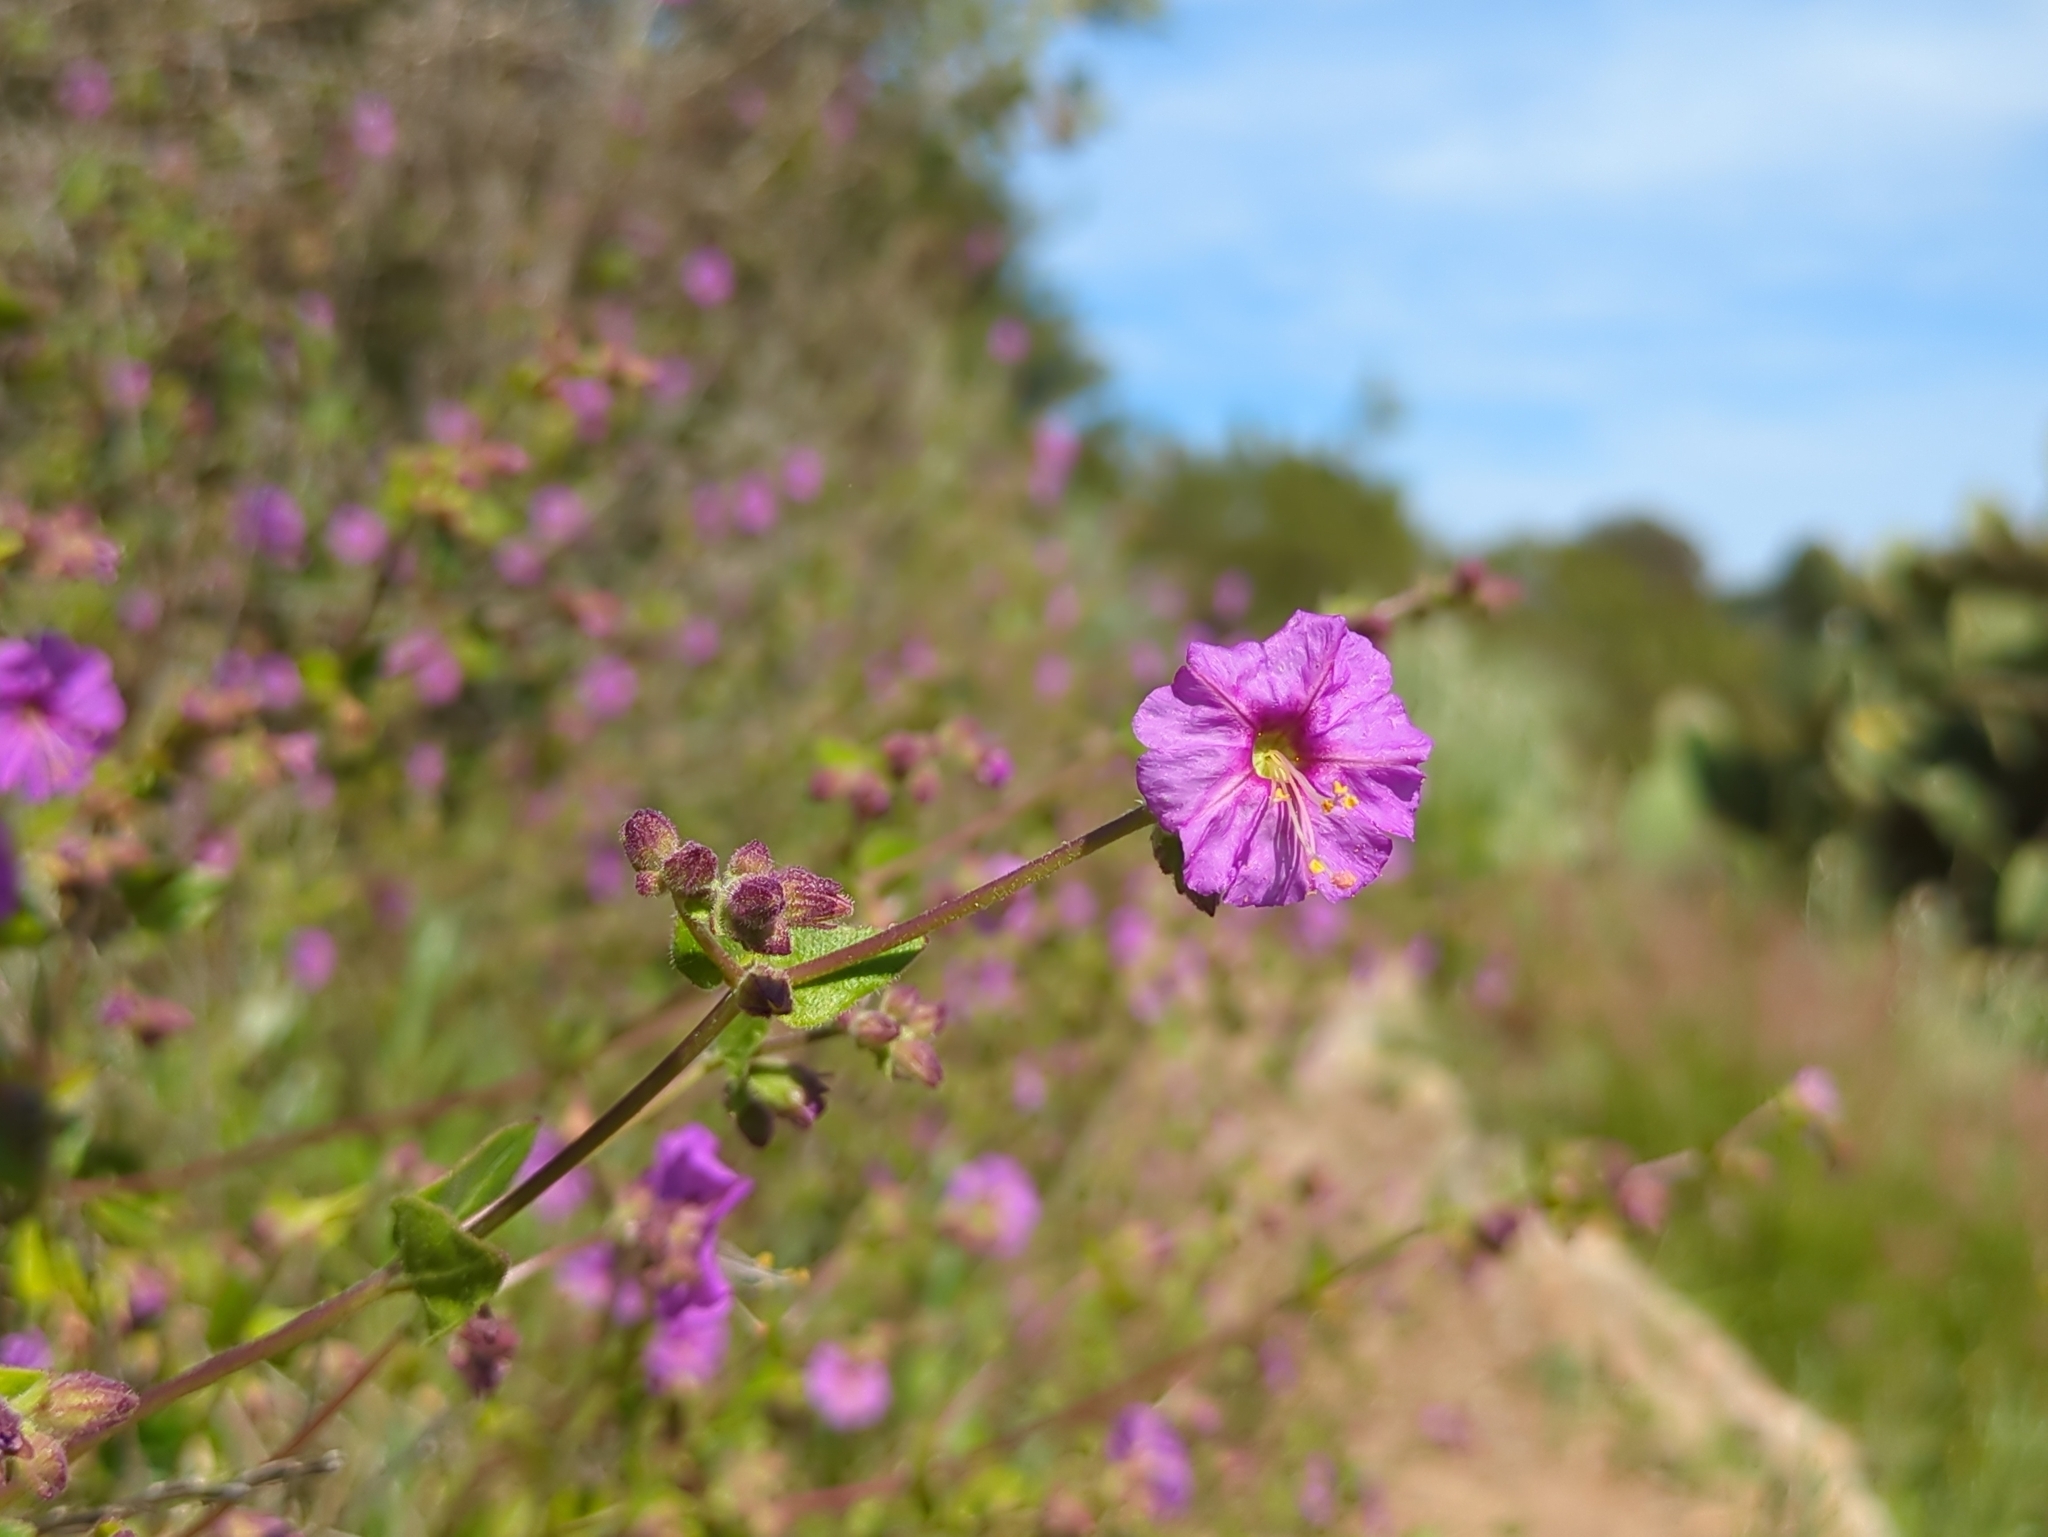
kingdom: Plantae
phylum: Tracheophyta
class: Magnoliopsida
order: Caryophyllales
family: Nyctaginaceae
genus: Mirabilis
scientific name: Mirabilis laevis
